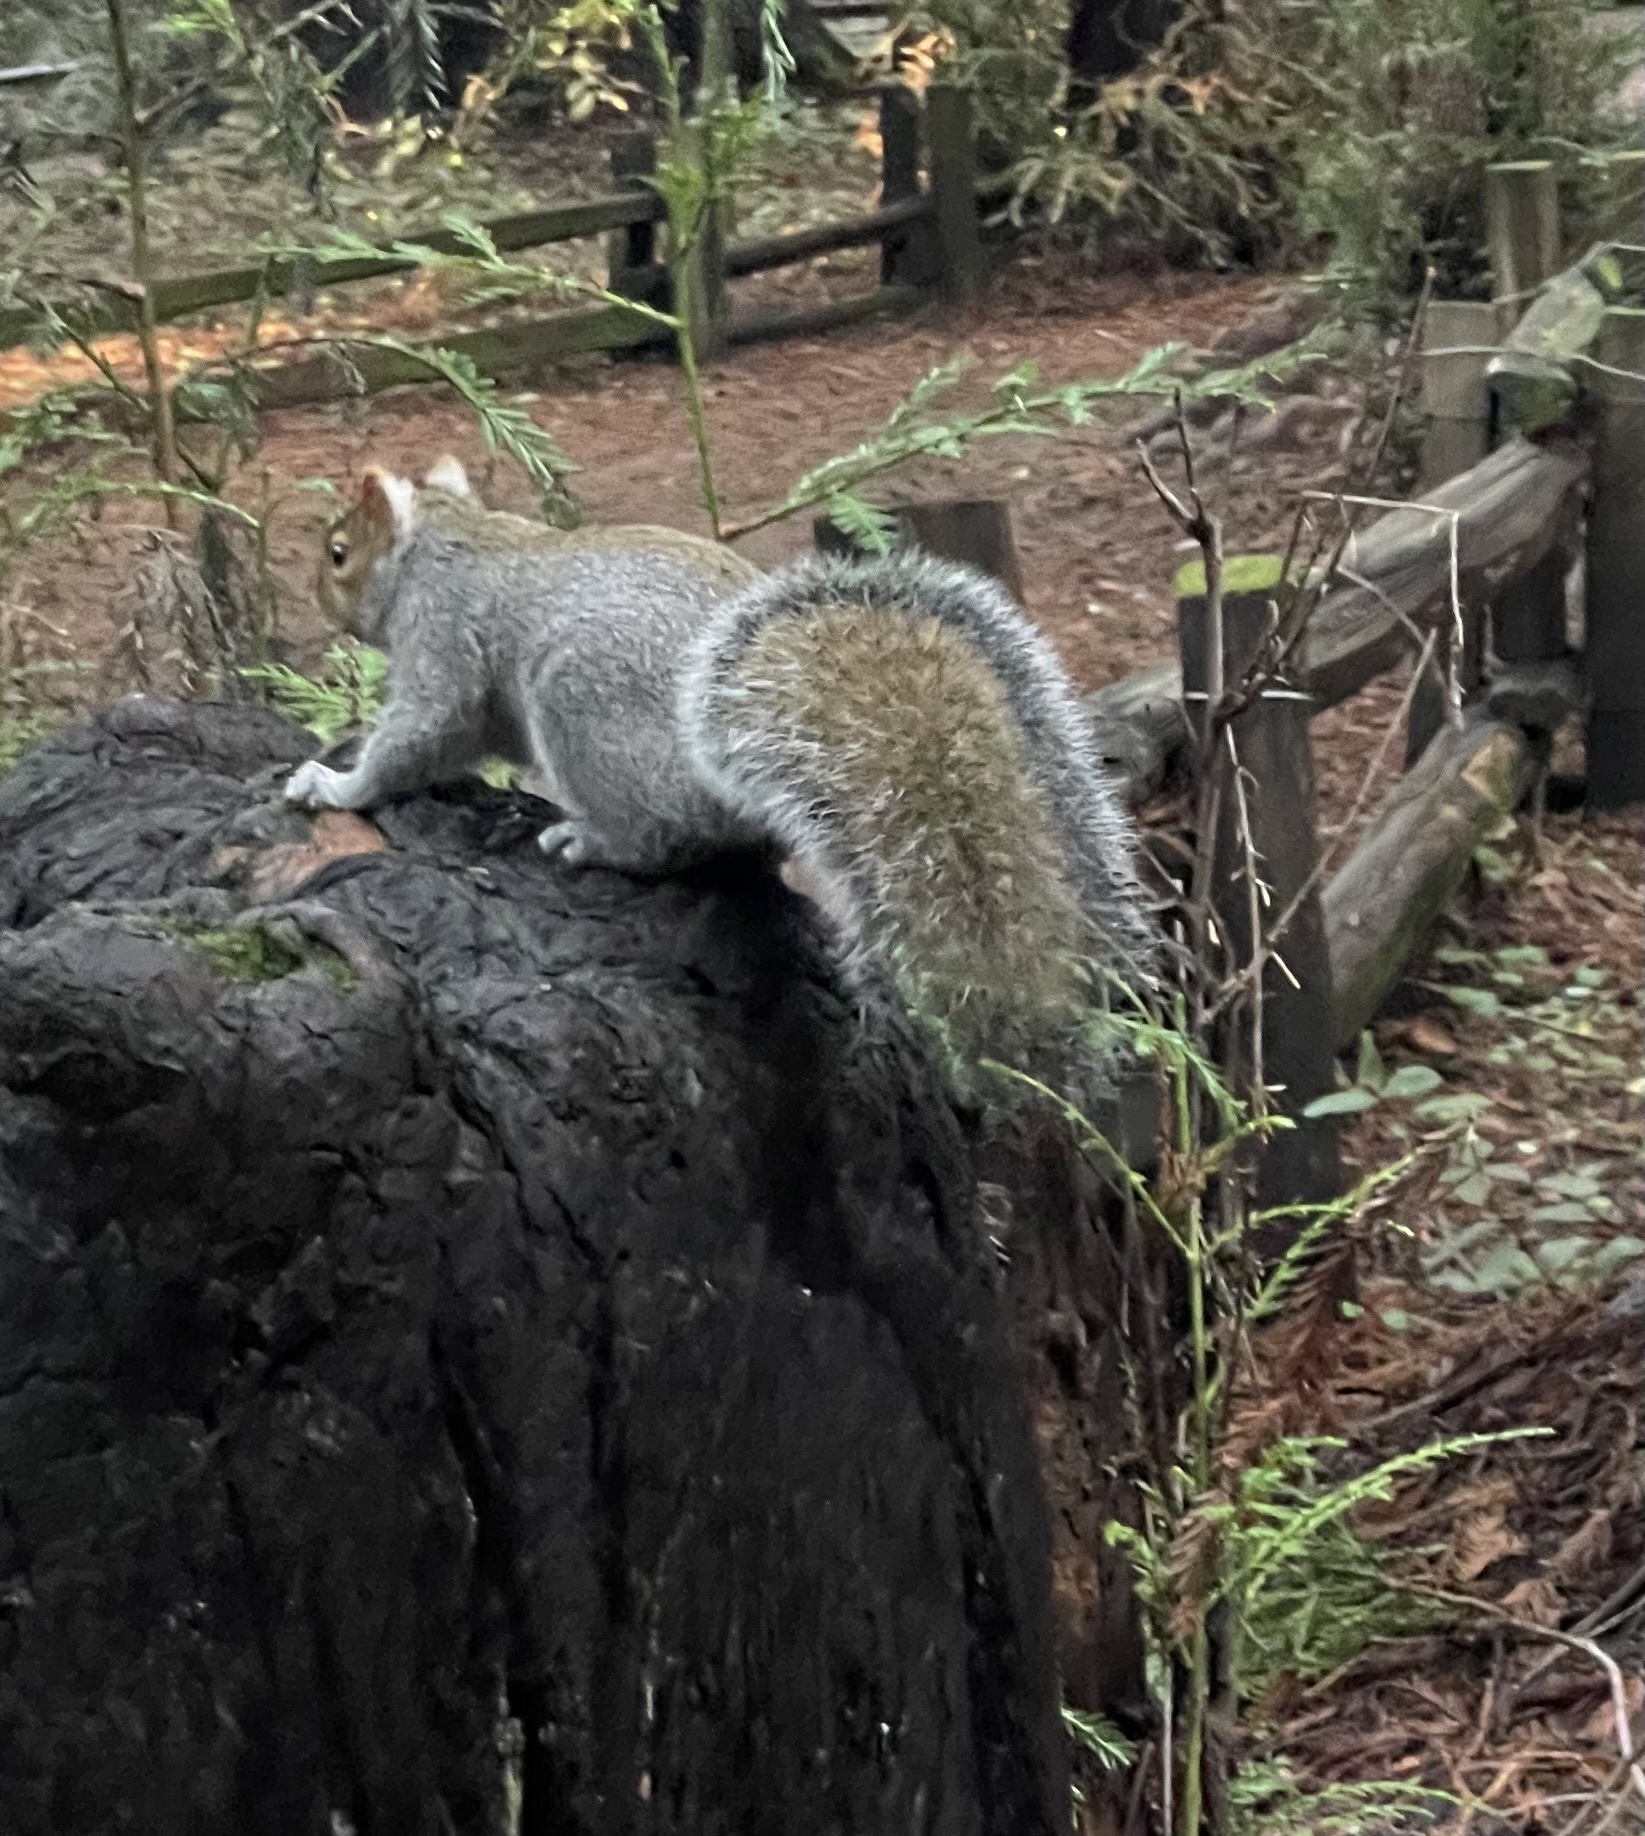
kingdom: Animalia
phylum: Chordata
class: Mammalia
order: Rodentia
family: Sciuridae
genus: Sciurus
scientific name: Sciurus carolinensis
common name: Eastern gray squirrel
